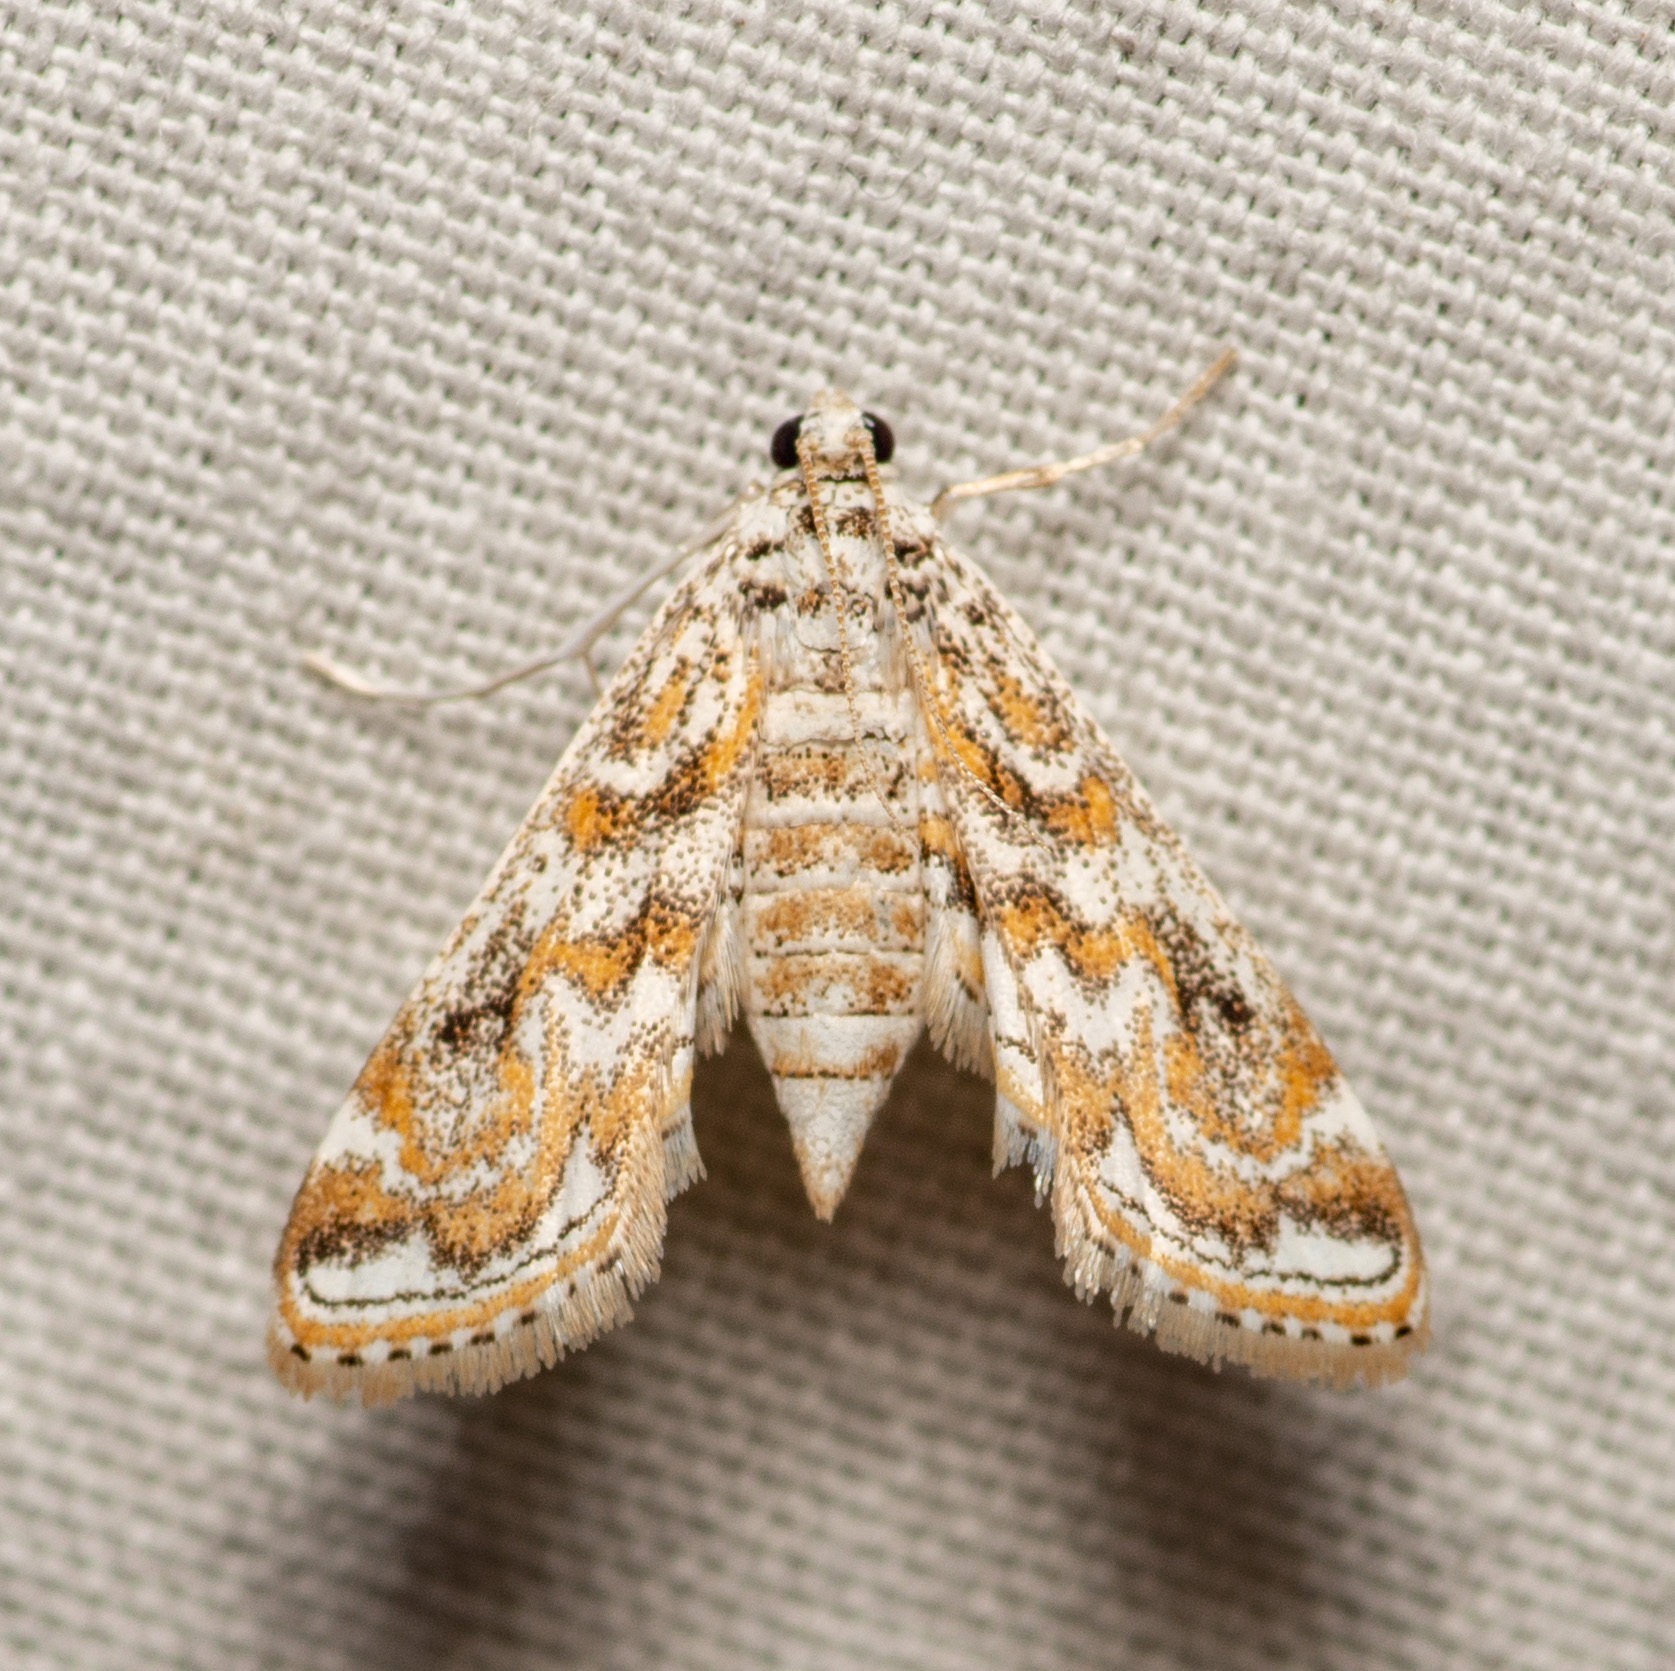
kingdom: Animalia
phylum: Arthropoda
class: Insecta
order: Lepidoptera
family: Crambidae
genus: Parapoynx
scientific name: Parapoynx diminutalis
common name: Hydrilla leafcutter
